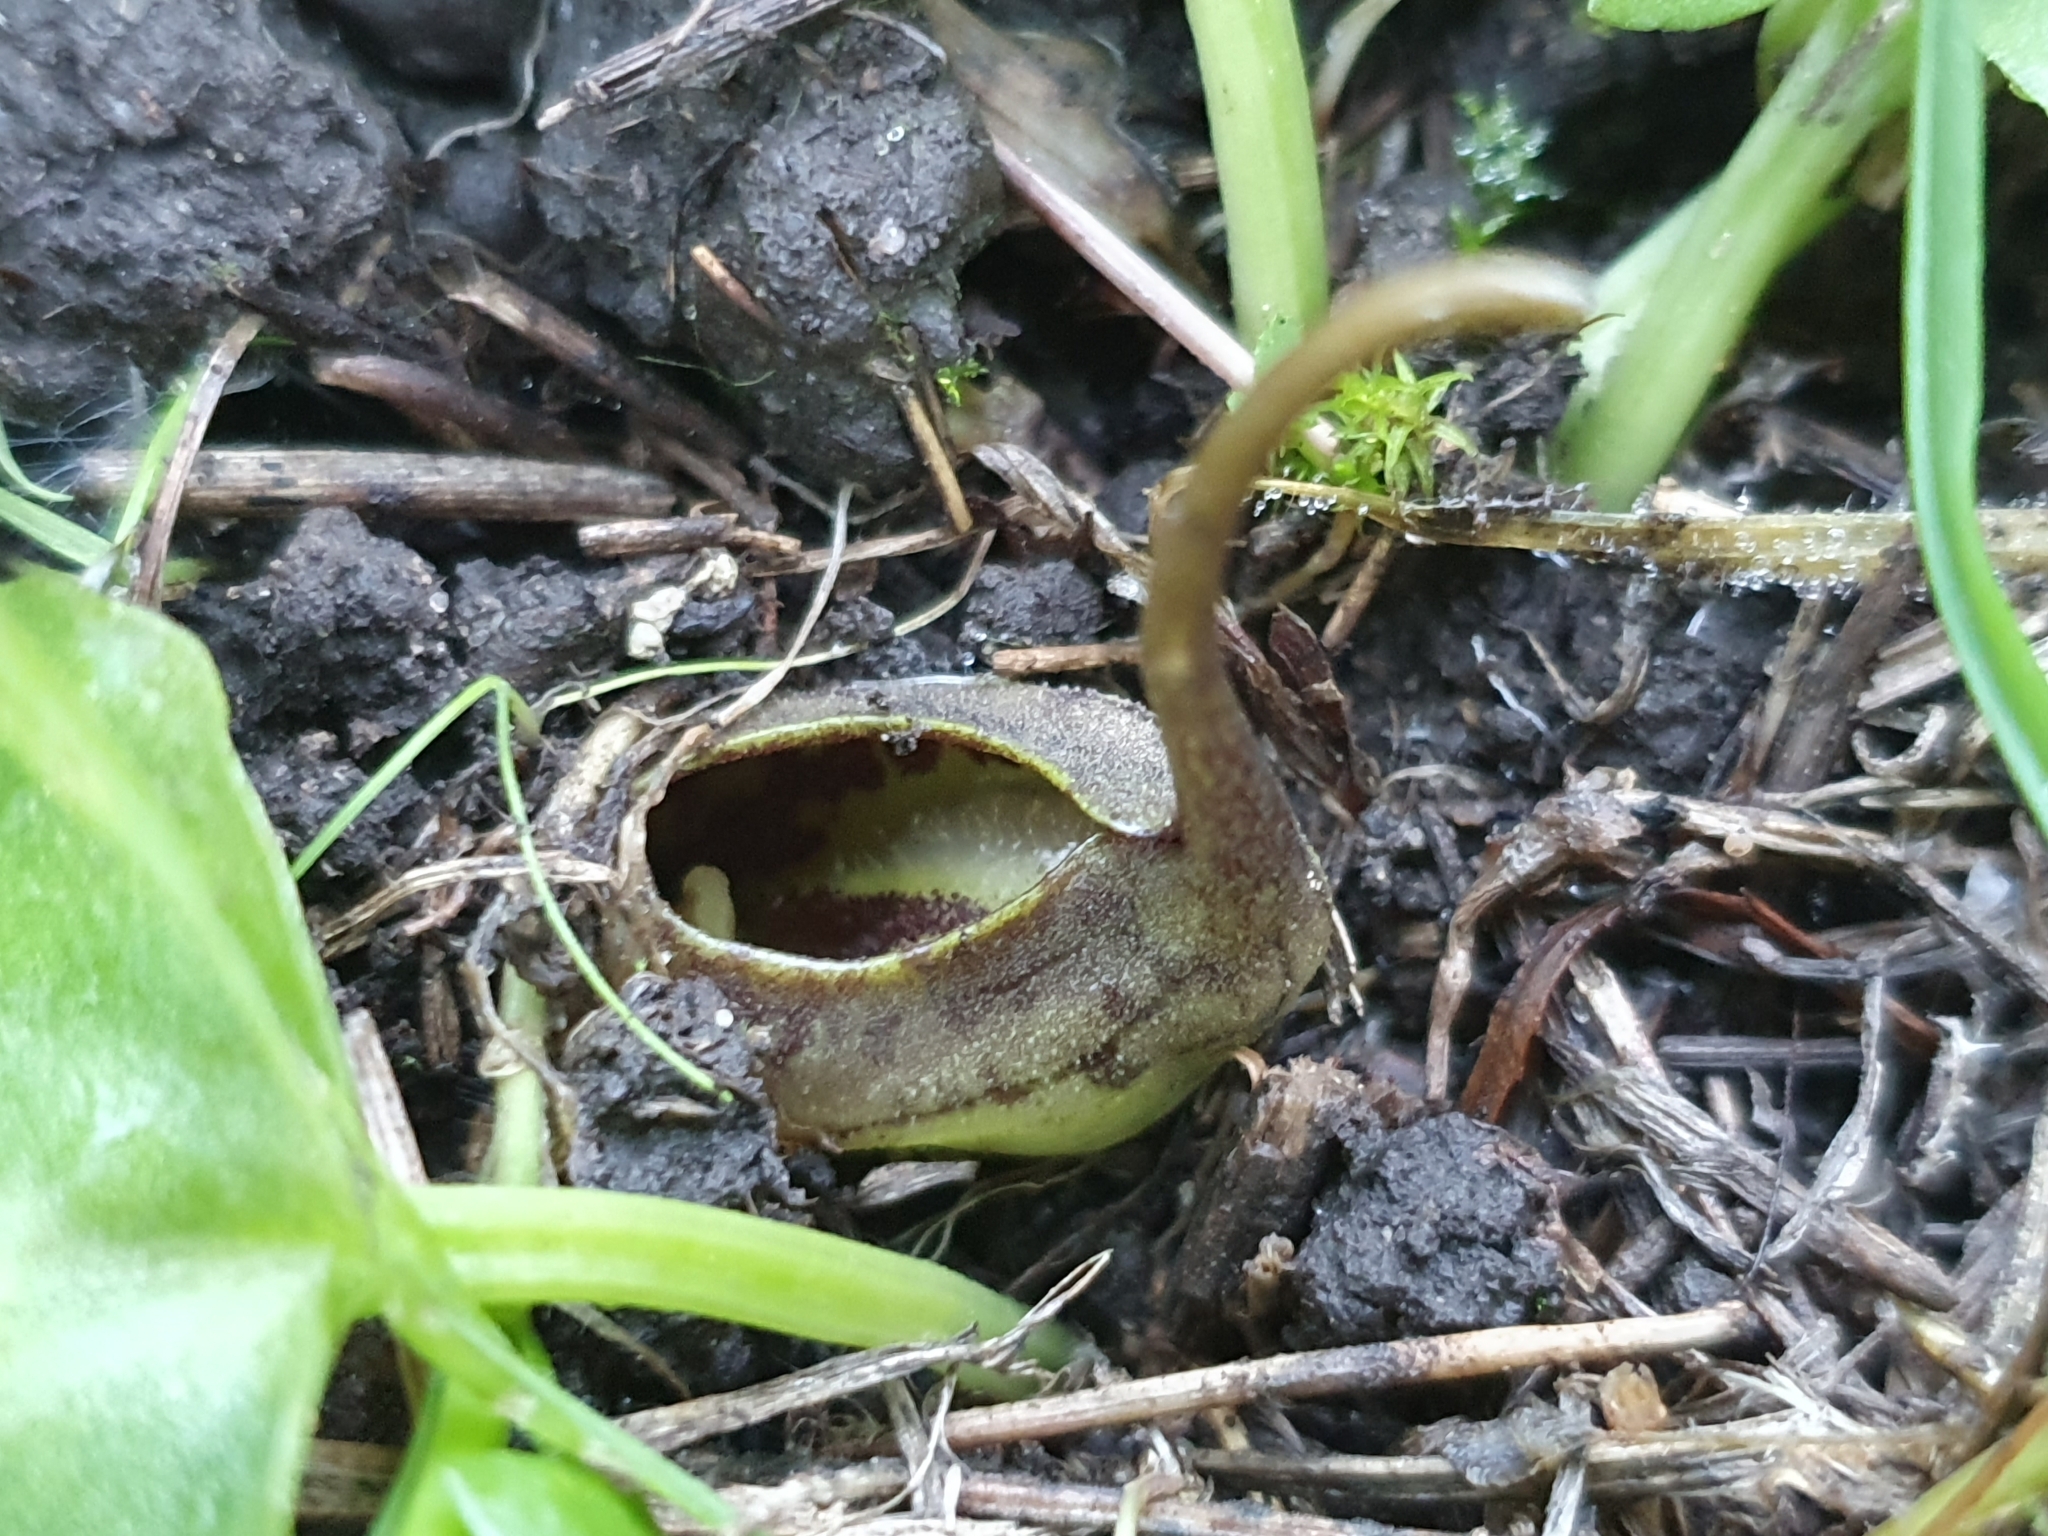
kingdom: Plantae
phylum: Tracheophyta
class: Liliopsida
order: Alismatales
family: Araceae
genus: Ambrosina
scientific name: Ambrosina bassii
